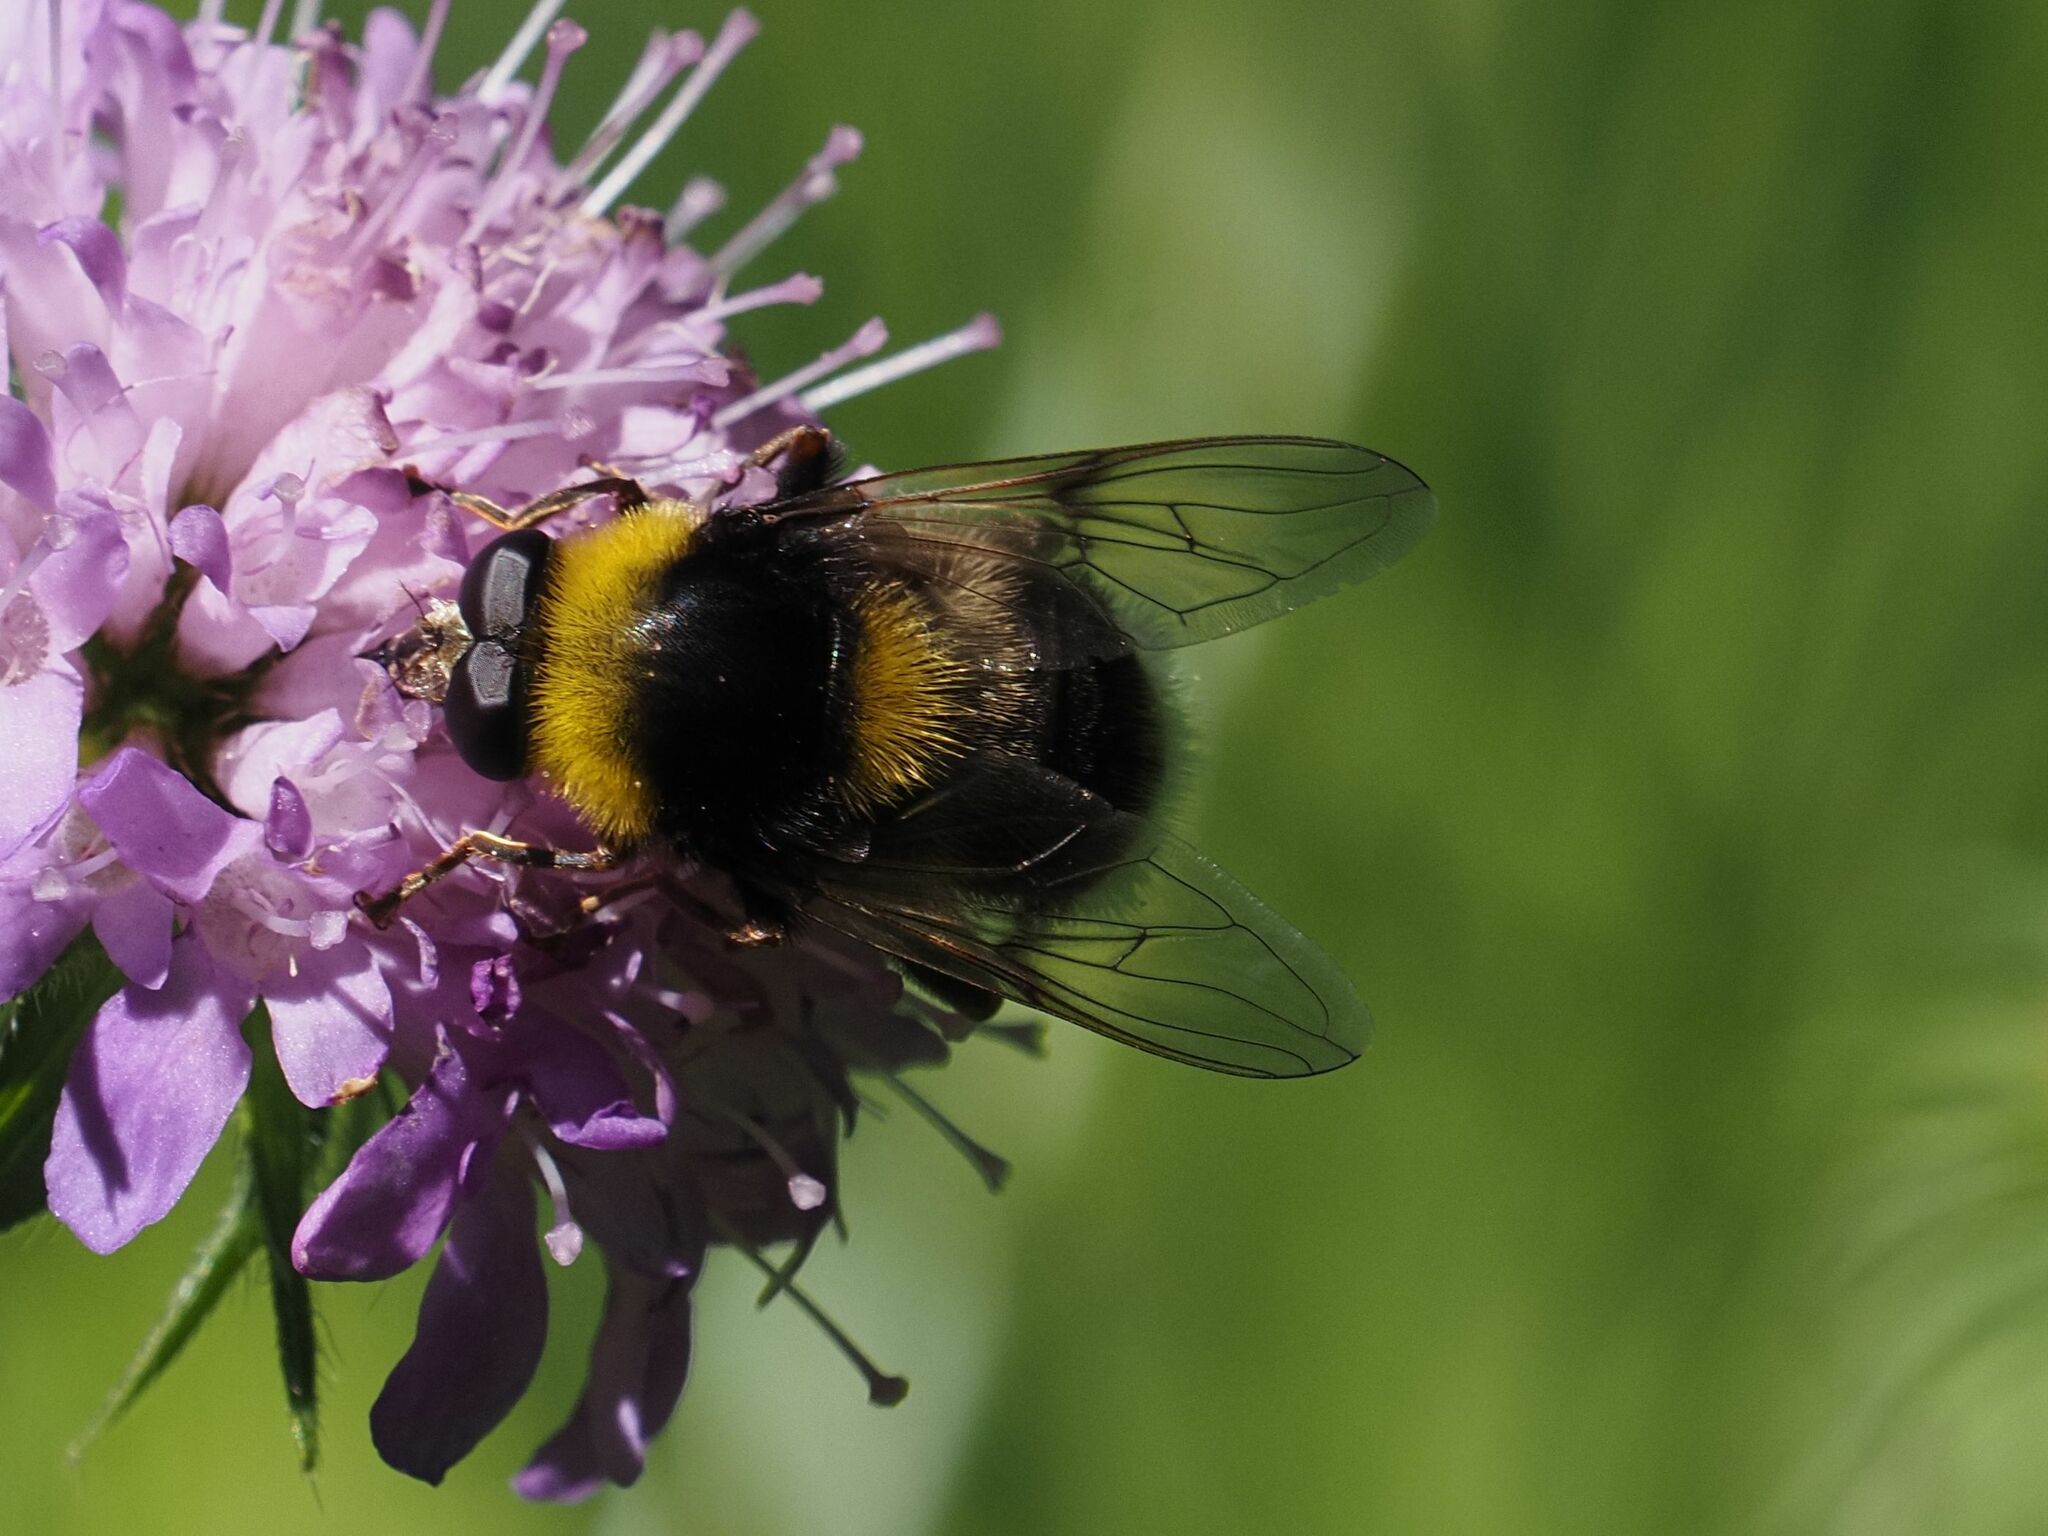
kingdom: Animalia
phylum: Arthropoda
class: Insecta
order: Diptera
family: Syrphidae
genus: Sericomyia
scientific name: Sericomyia bombiformis
